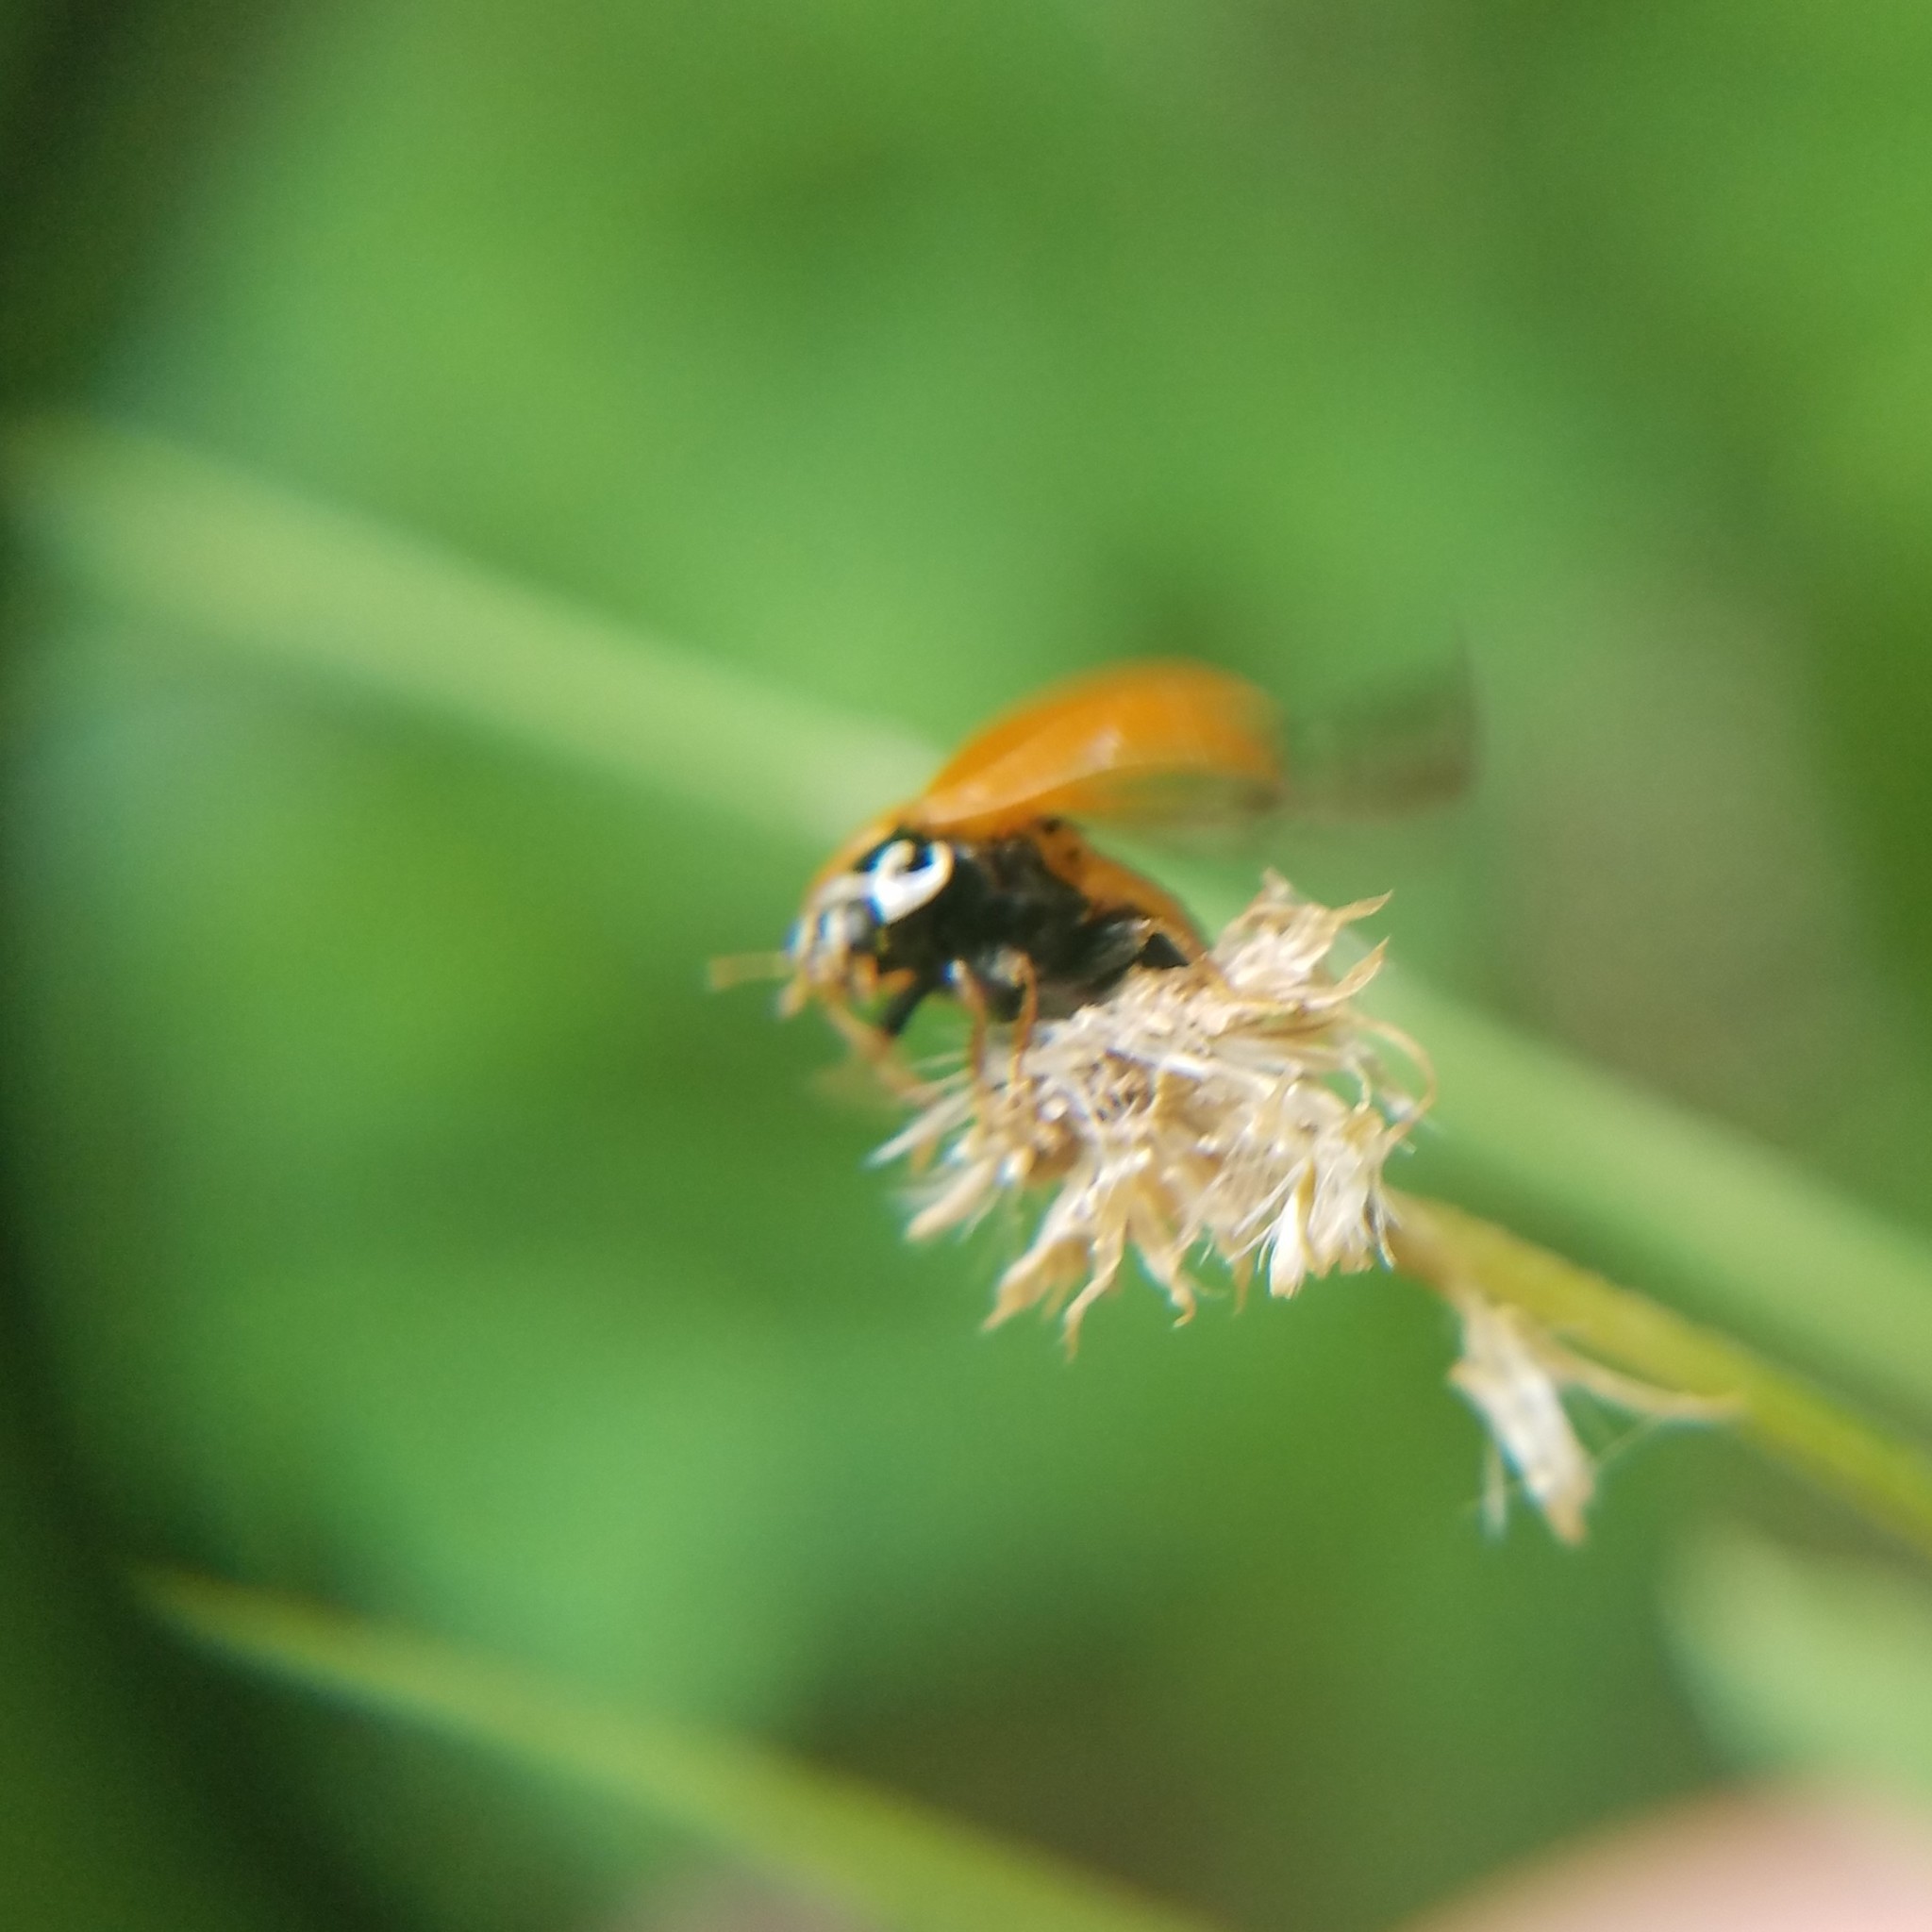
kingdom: Animalia
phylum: Arthropoda
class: Insecta
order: Coleoptera
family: Coccinellidae
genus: Cycloneda
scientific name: Cycloneda munda
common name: Polished lady beetle
